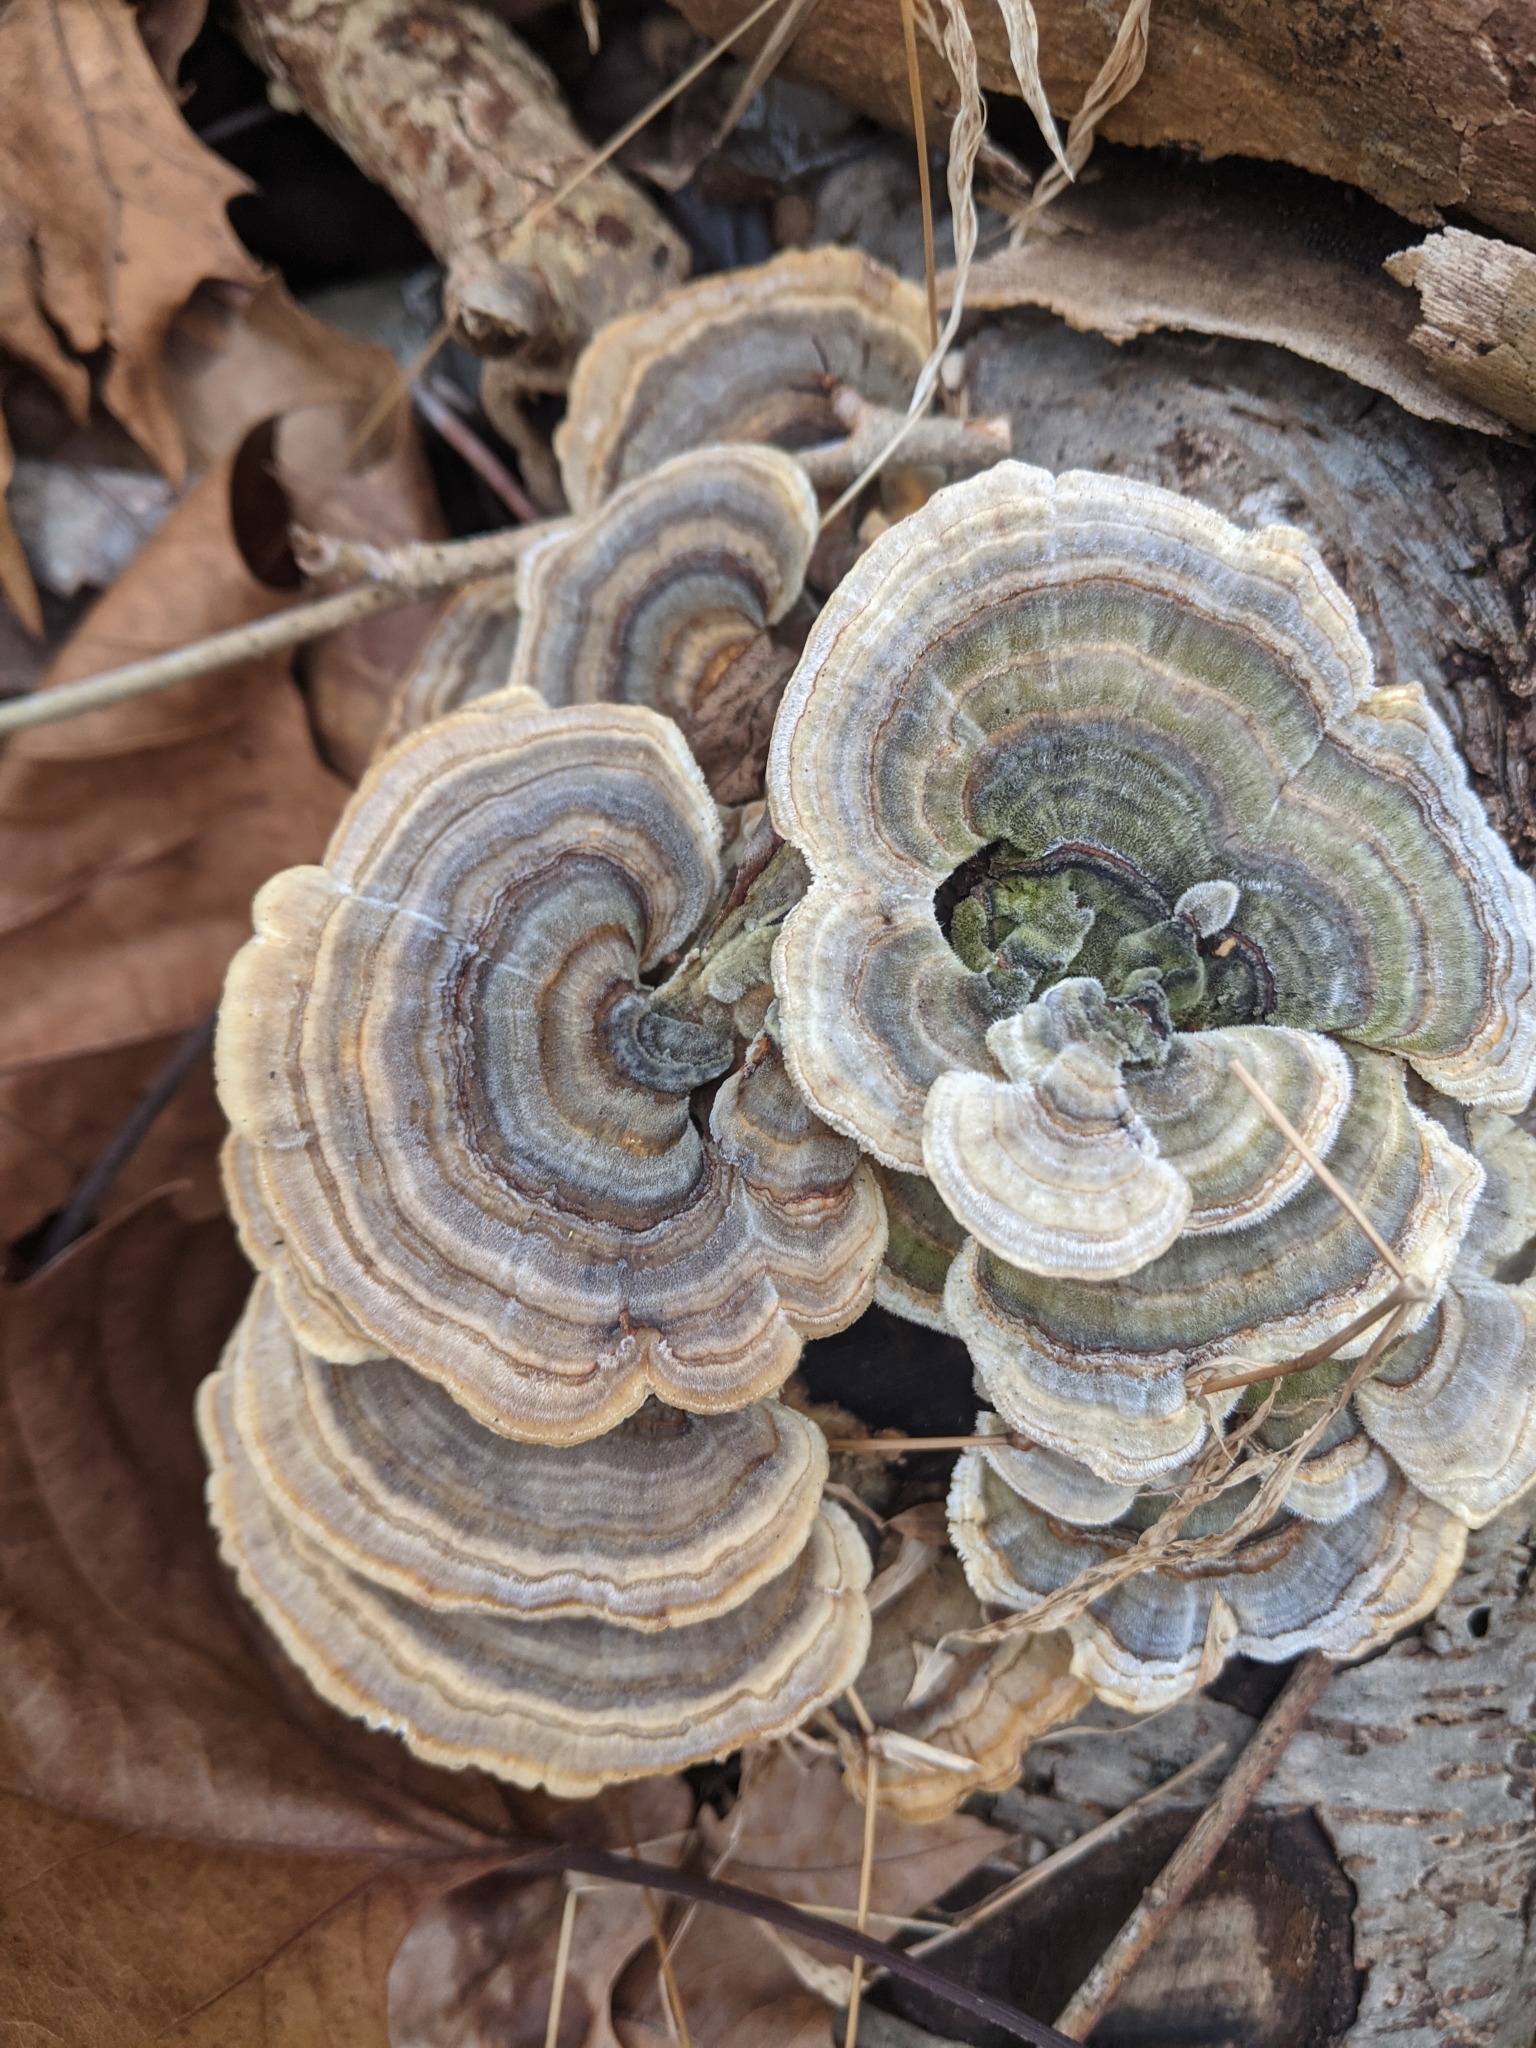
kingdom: Fungi
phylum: Basidiomycota
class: Agaricomycetes
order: Polyporales
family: Polyporaceae
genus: Trametes
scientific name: Trametes versicolor
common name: Turkeytail
